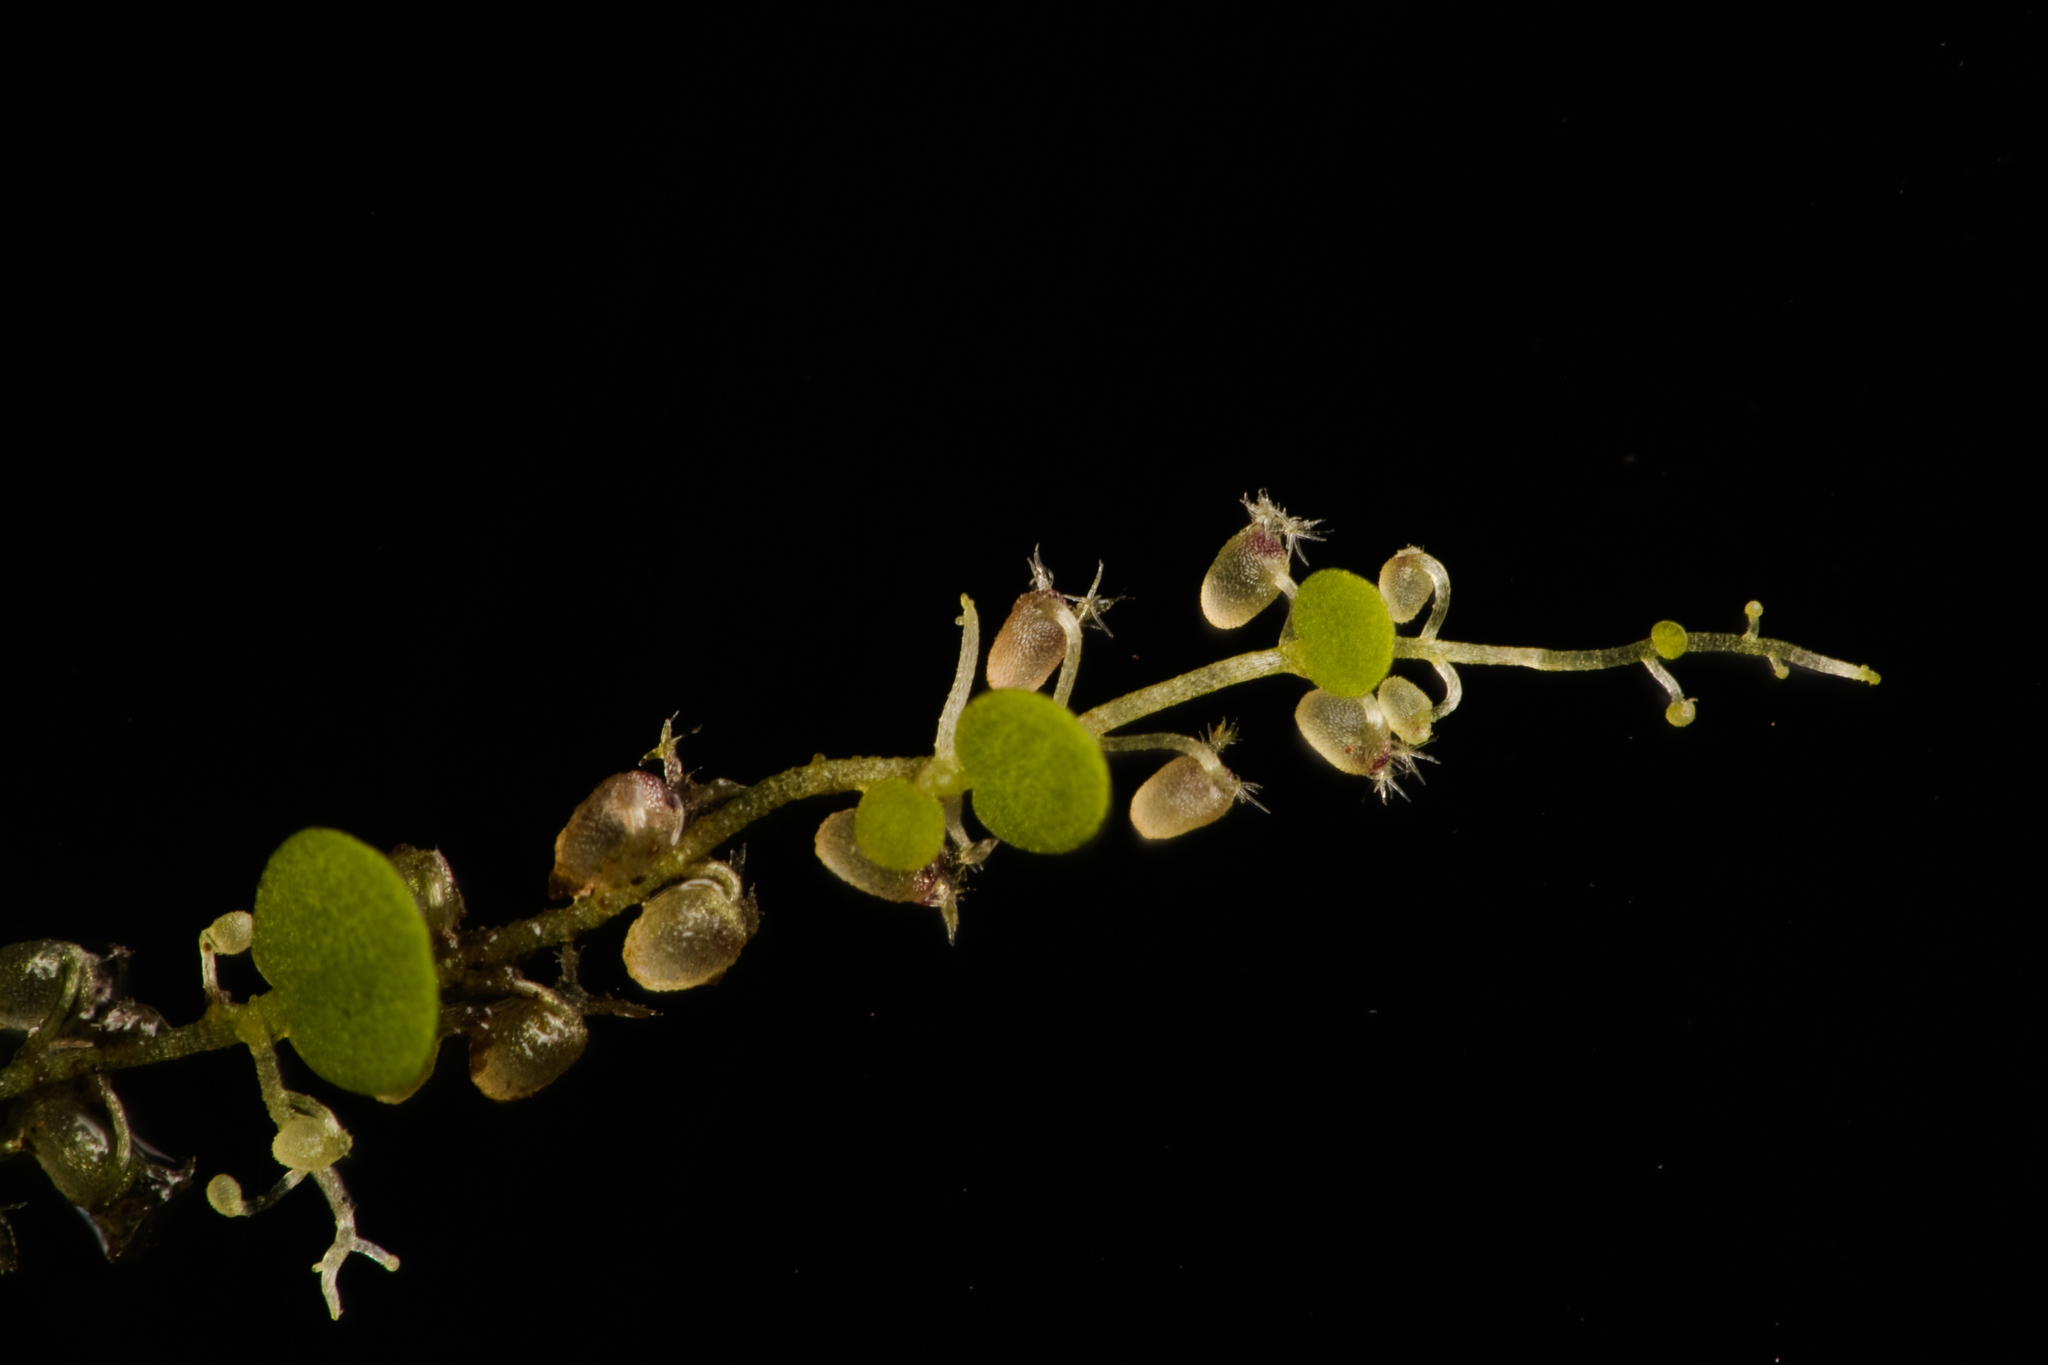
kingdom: Plantae
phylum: Tracheophyta
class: Magnoliopsida
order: Lamiales
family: Lentibulariaceae
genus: Utricularia
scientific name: Utricularia striatula
